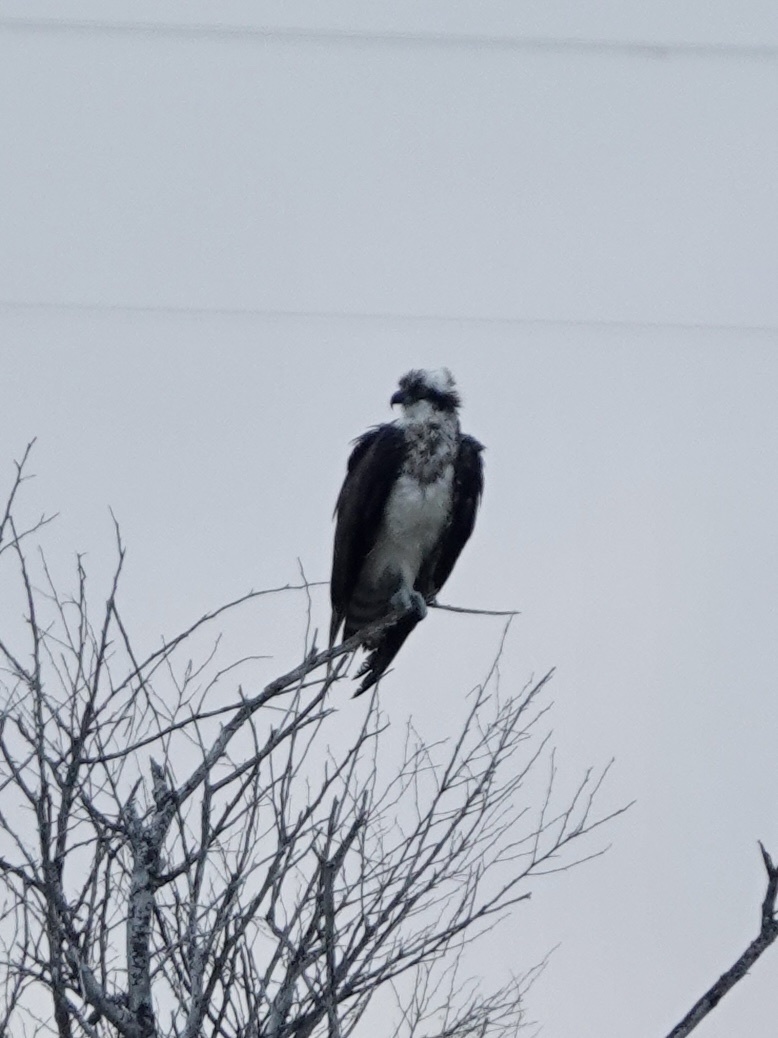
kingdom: Animalia
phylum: Chordata
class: Aves
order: Accipitriformes
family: Pandionidae
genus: Pandion
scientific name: Pandion haliaetus
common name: Osprey
